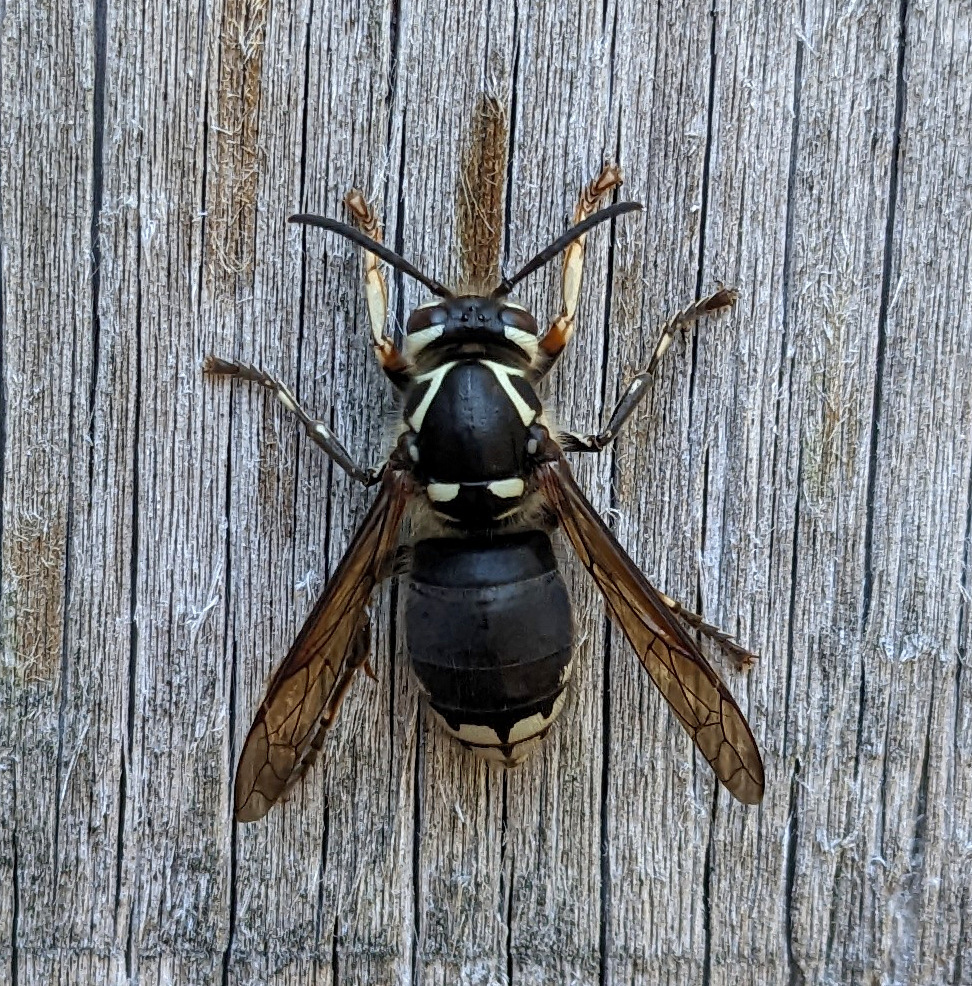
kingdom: Animalia
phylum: Arthropoda
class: Insecta
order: Hymenoptera
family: Vespidae
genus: Dolichovespula
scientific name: Dolichovespula maculata
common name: Bald-faced hornet
